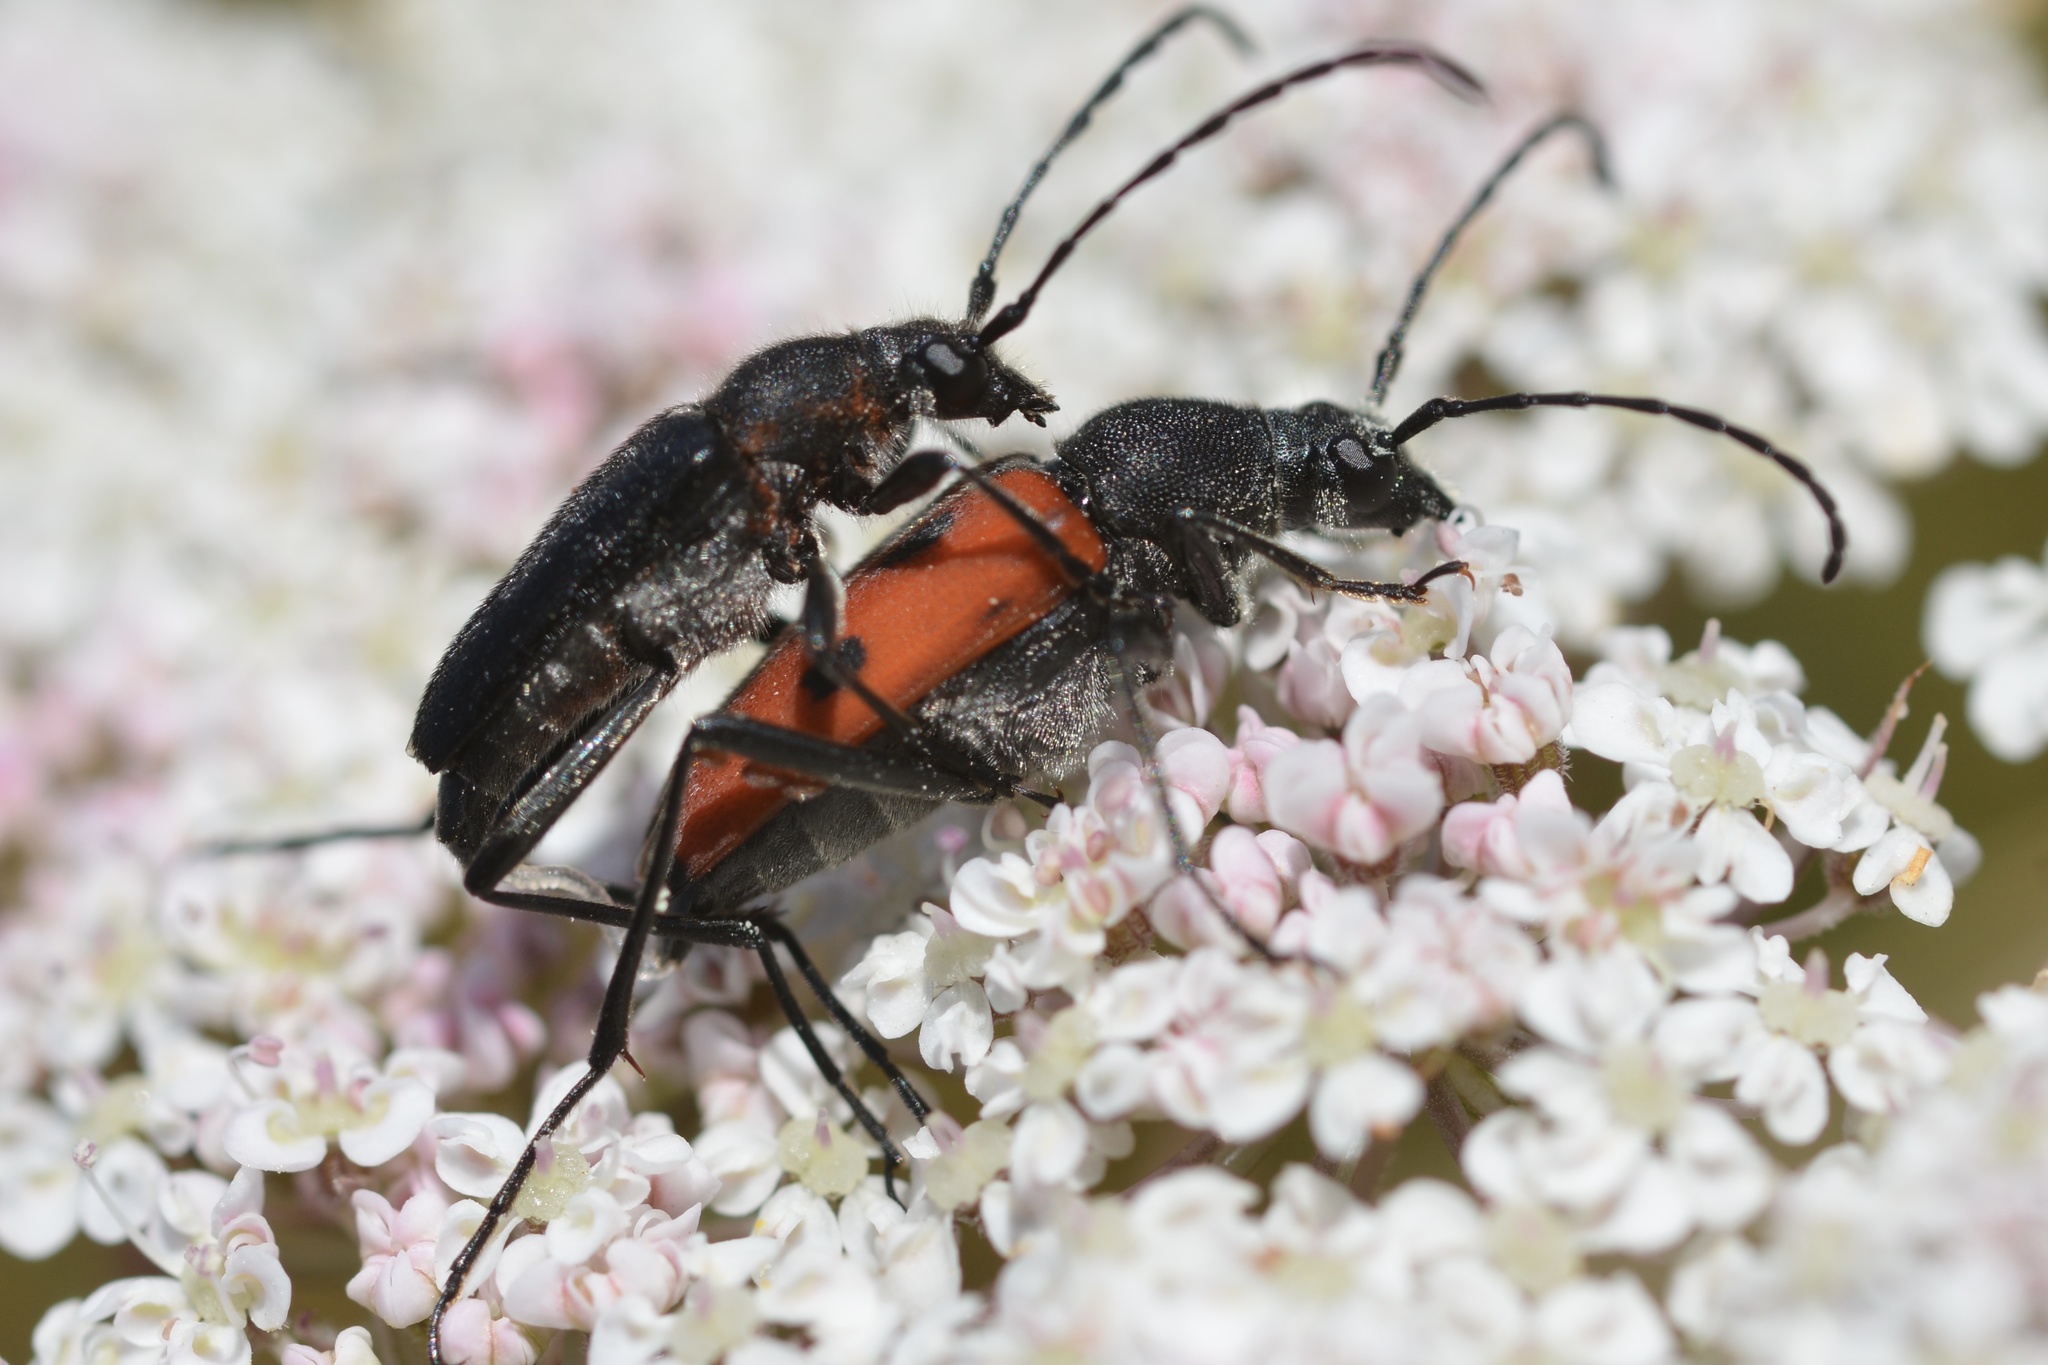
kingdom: Animalia
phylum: Arthropoda
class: Insecta
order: Coleoptera
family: Cerambycidae
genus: Anastrangalia
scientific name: Anastrangalia laetifica
